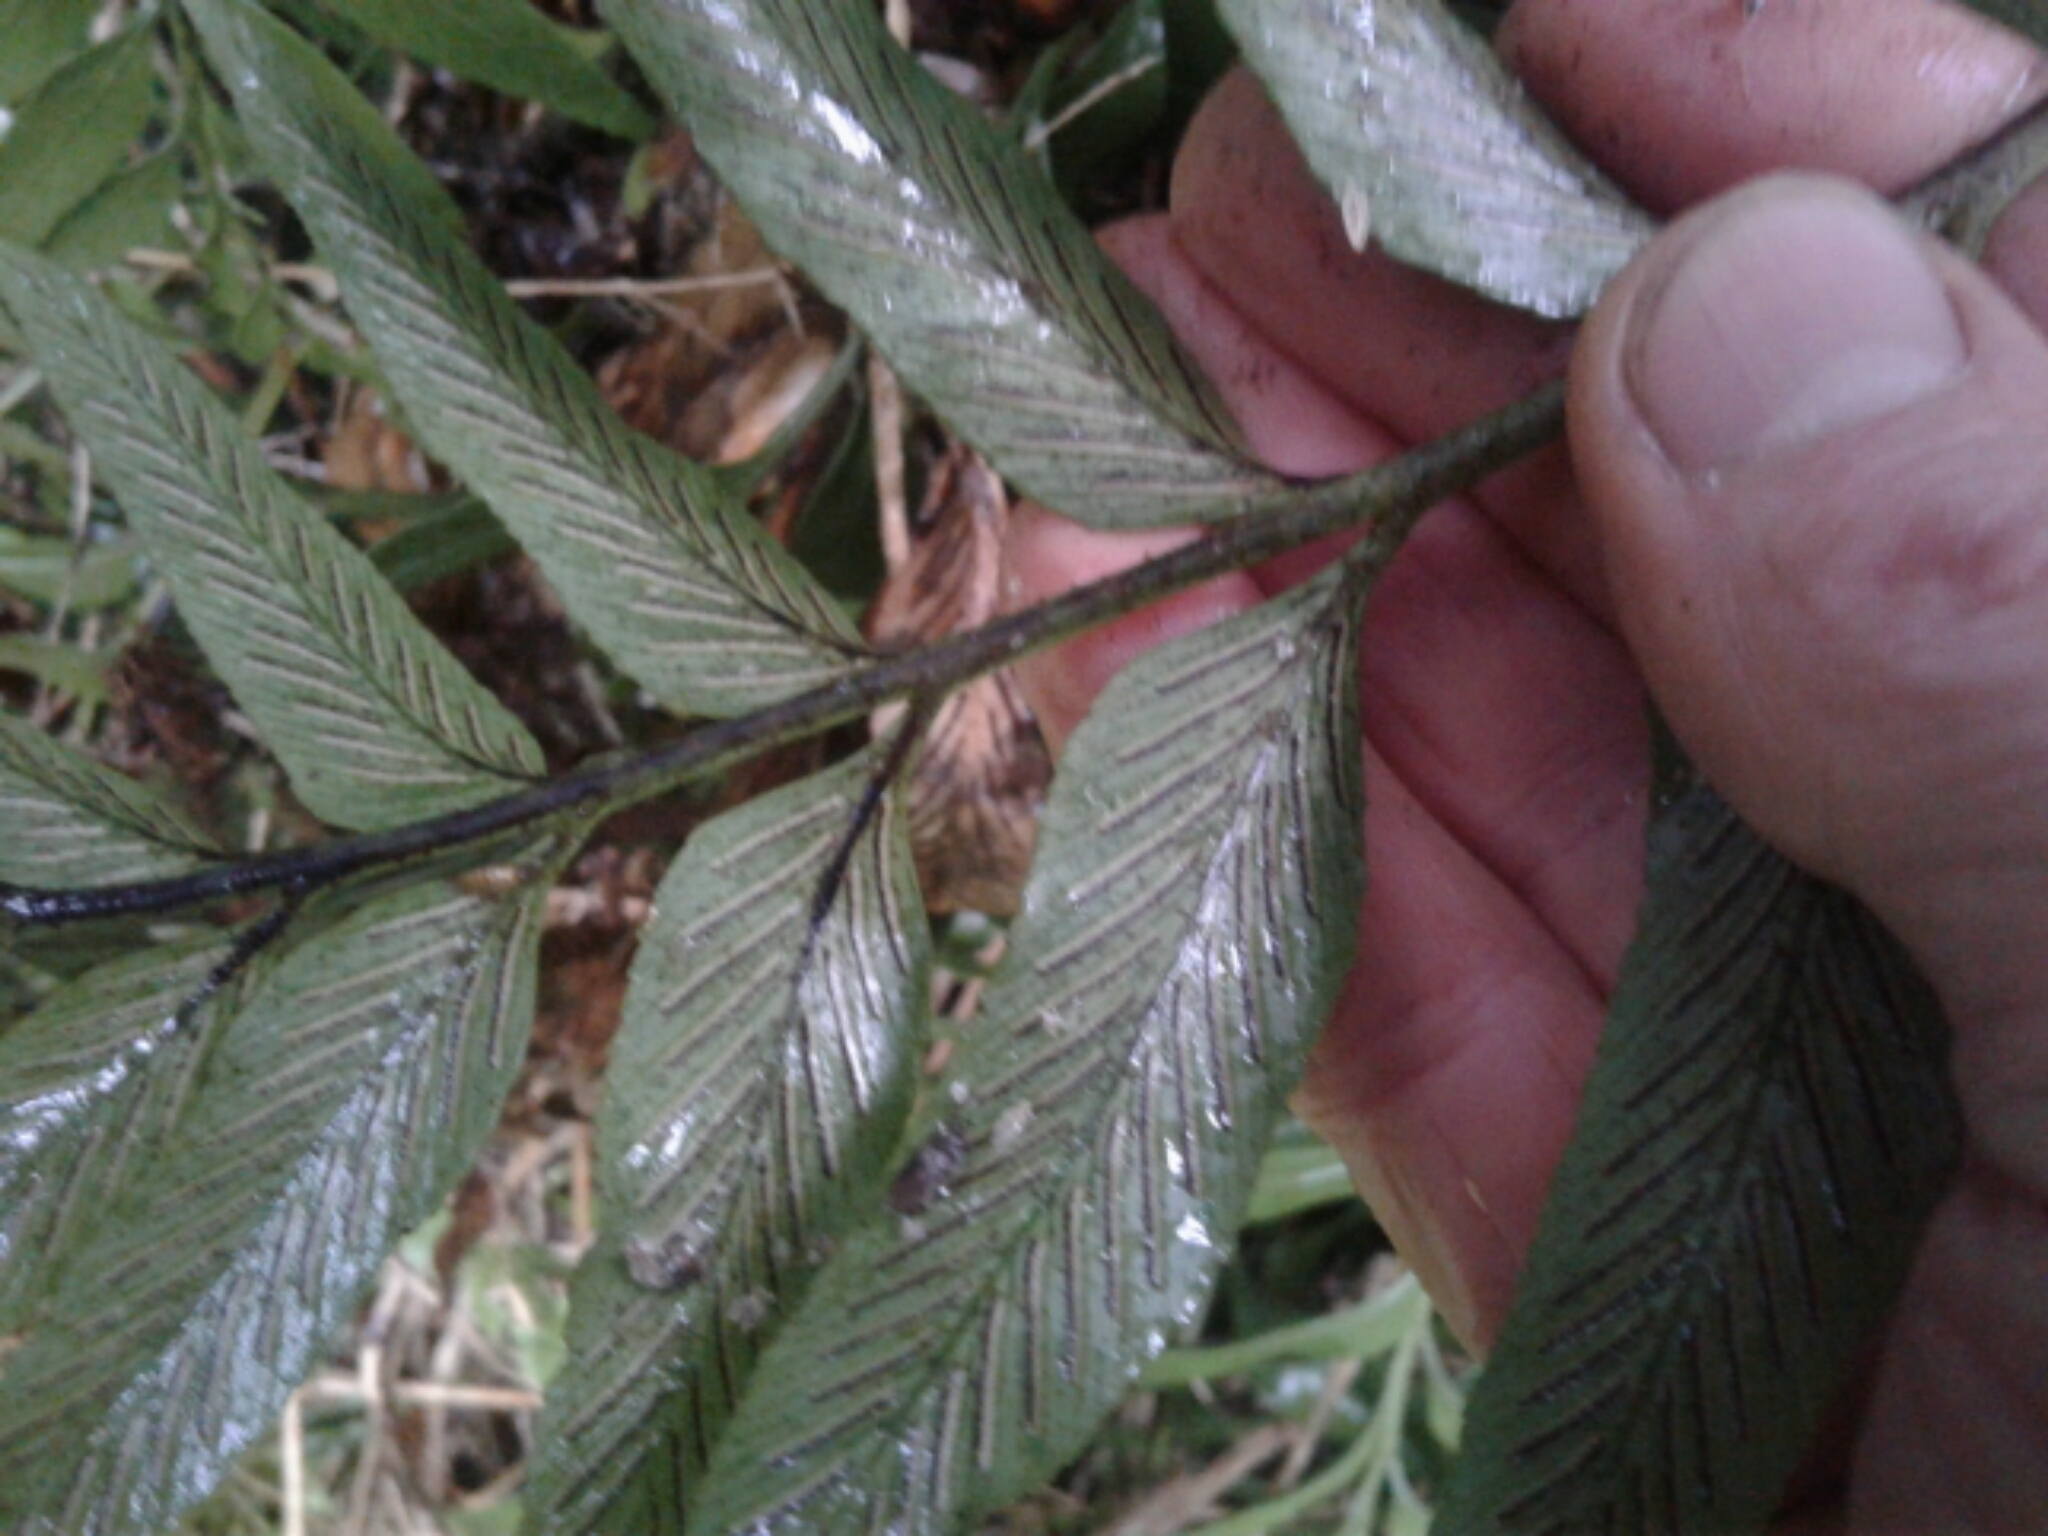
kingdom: Plantae
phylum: Tracheophyta
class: Polypodiopsida
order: Polypodiales
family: Aspleniaceae
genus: Asplenium
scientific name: Asplenium obtusatum
